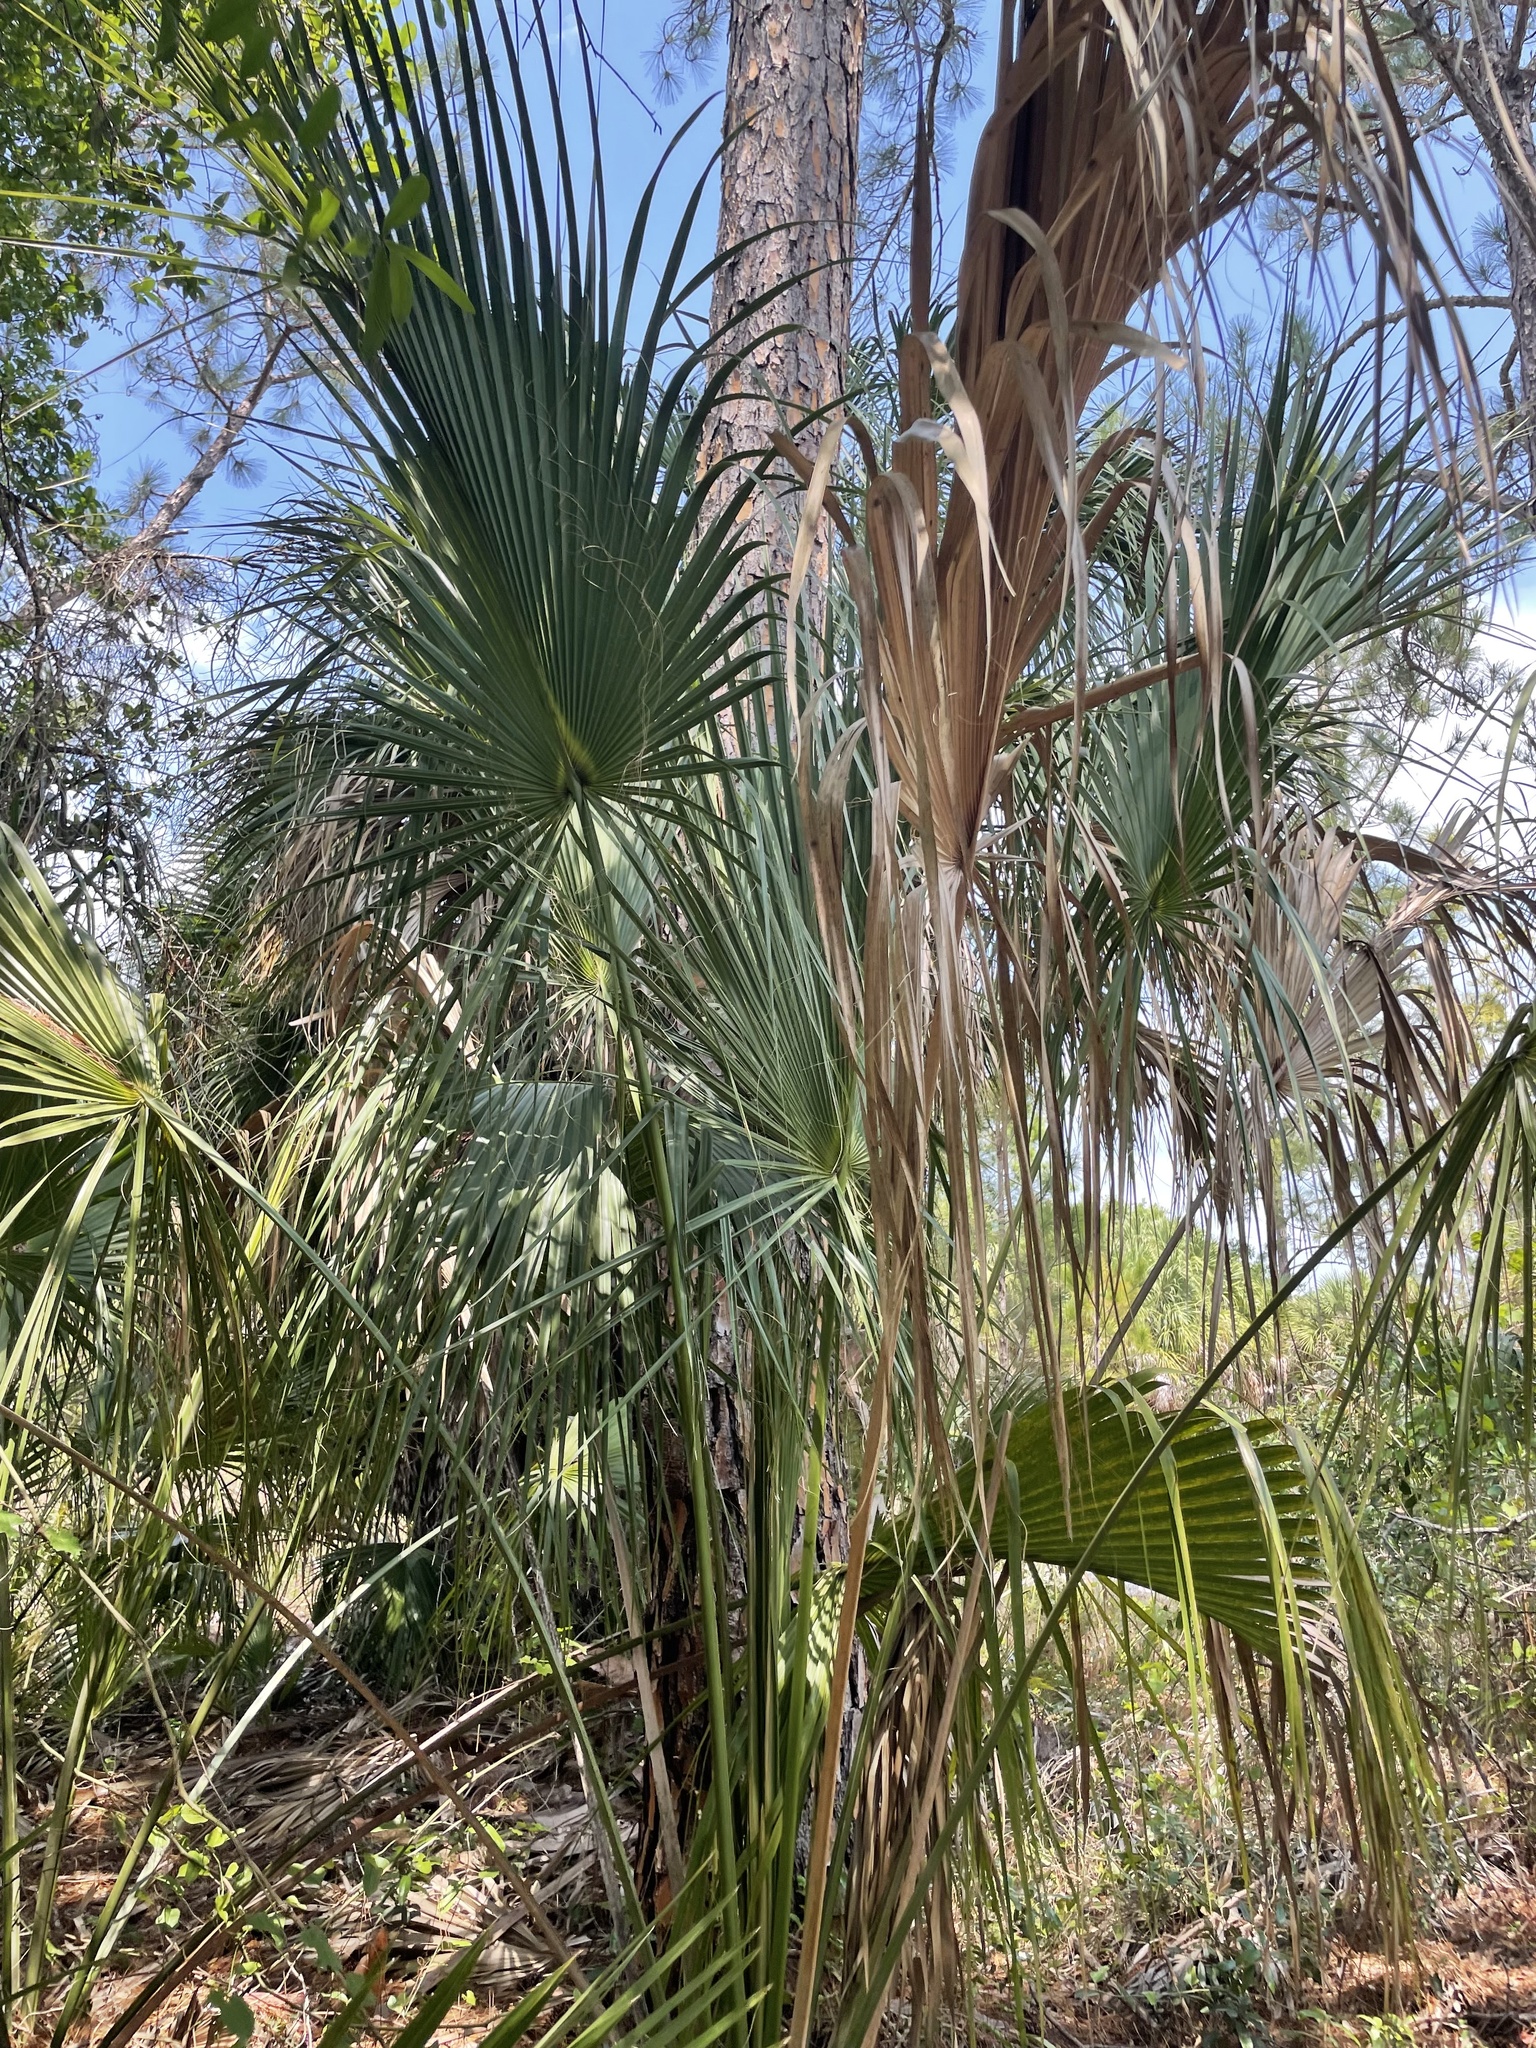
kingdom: Plantae
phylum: Tracheophyta
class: Liliopsida
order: Arecales
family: Arecaceae
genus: Sabal
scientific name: Sabal palmetto
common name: Blue palmetto
